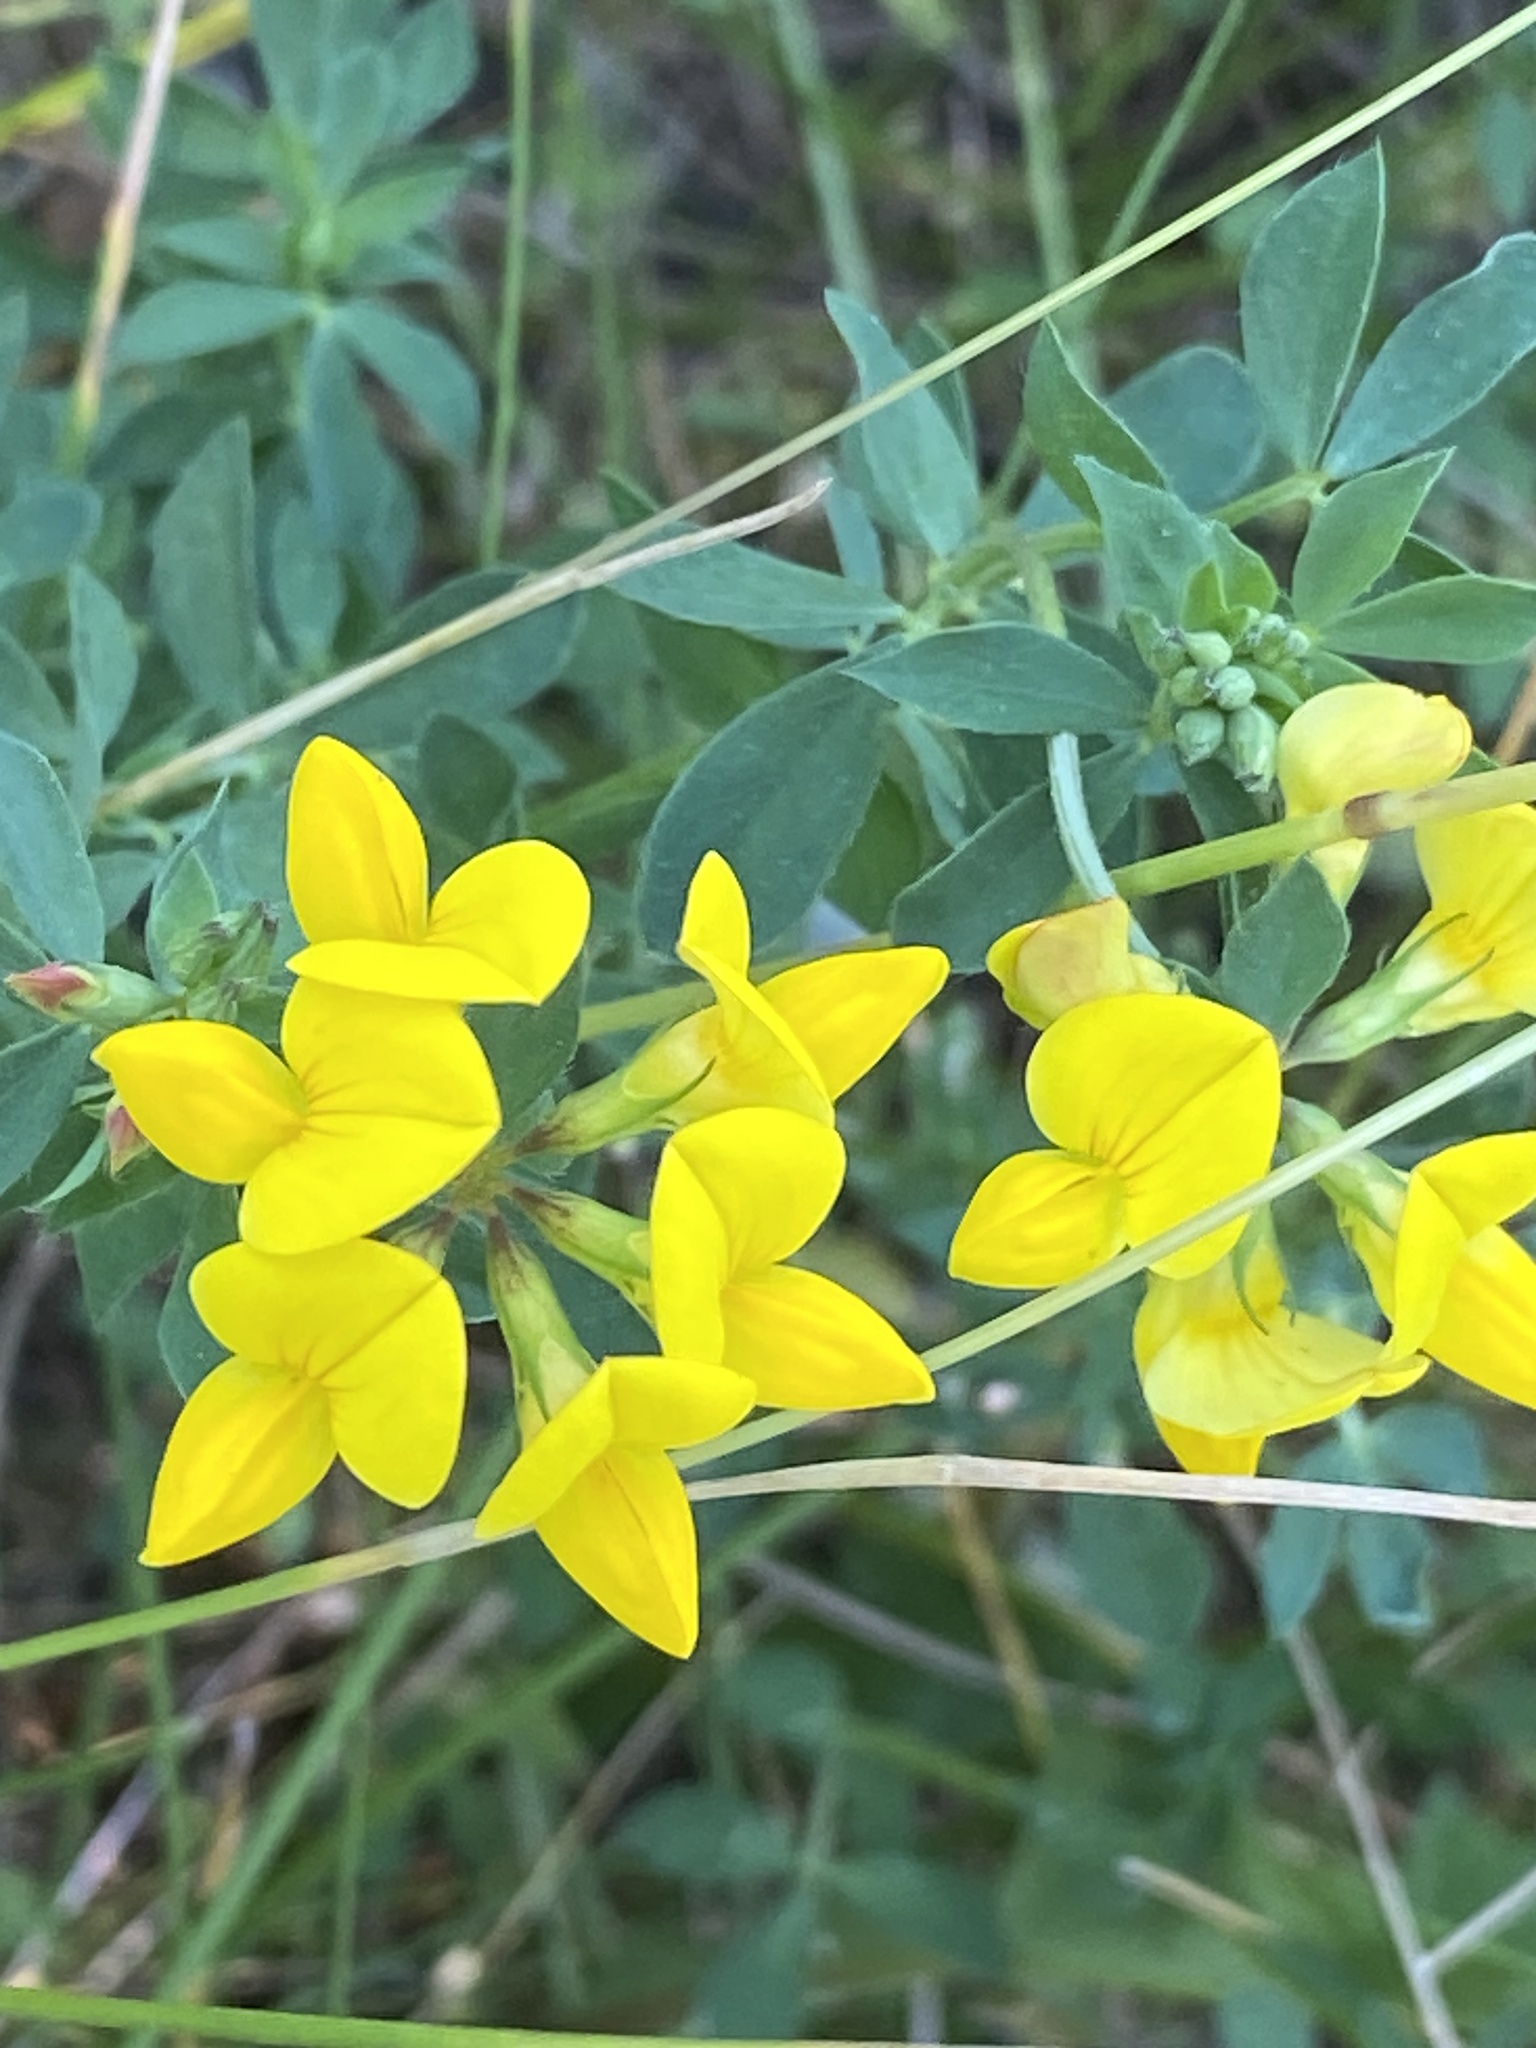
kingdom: Plantae
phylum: Tracheophyta
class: Magnoliopsida
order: Fabales
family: Fabaceae
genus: Lotus
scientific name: Lotus corniculatus
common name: Common bird's-foot-trefoil
